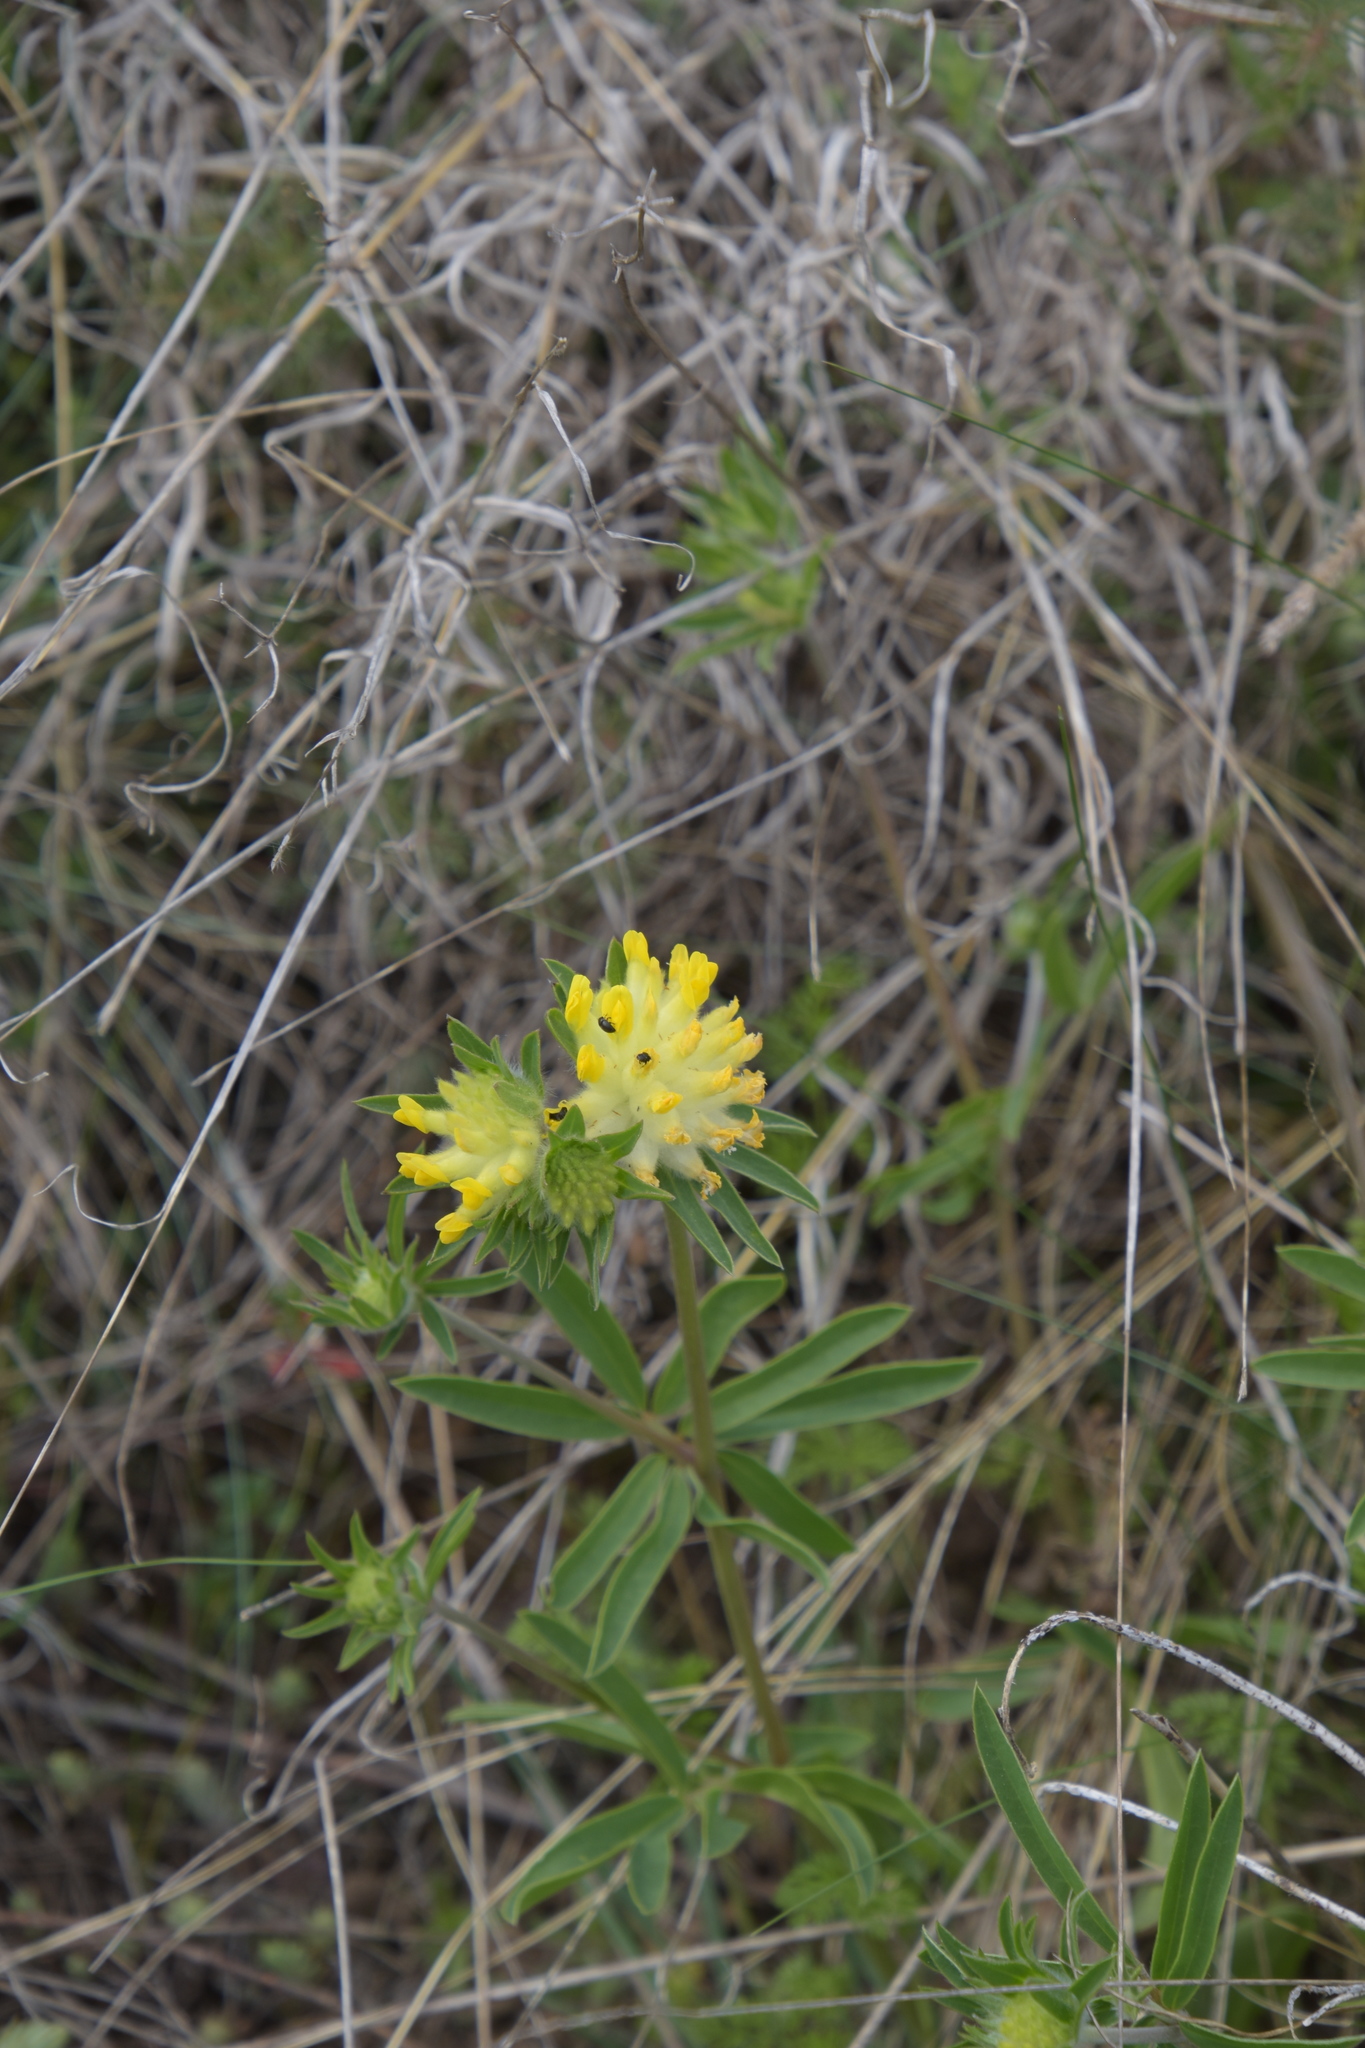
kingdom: Plantae
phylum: Tracheophyta
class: Magnoliopsida
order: Fabales
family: Fabaceae
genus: Anthyllis
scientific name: Anthyllis vulneraria
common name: Kidney vetch
